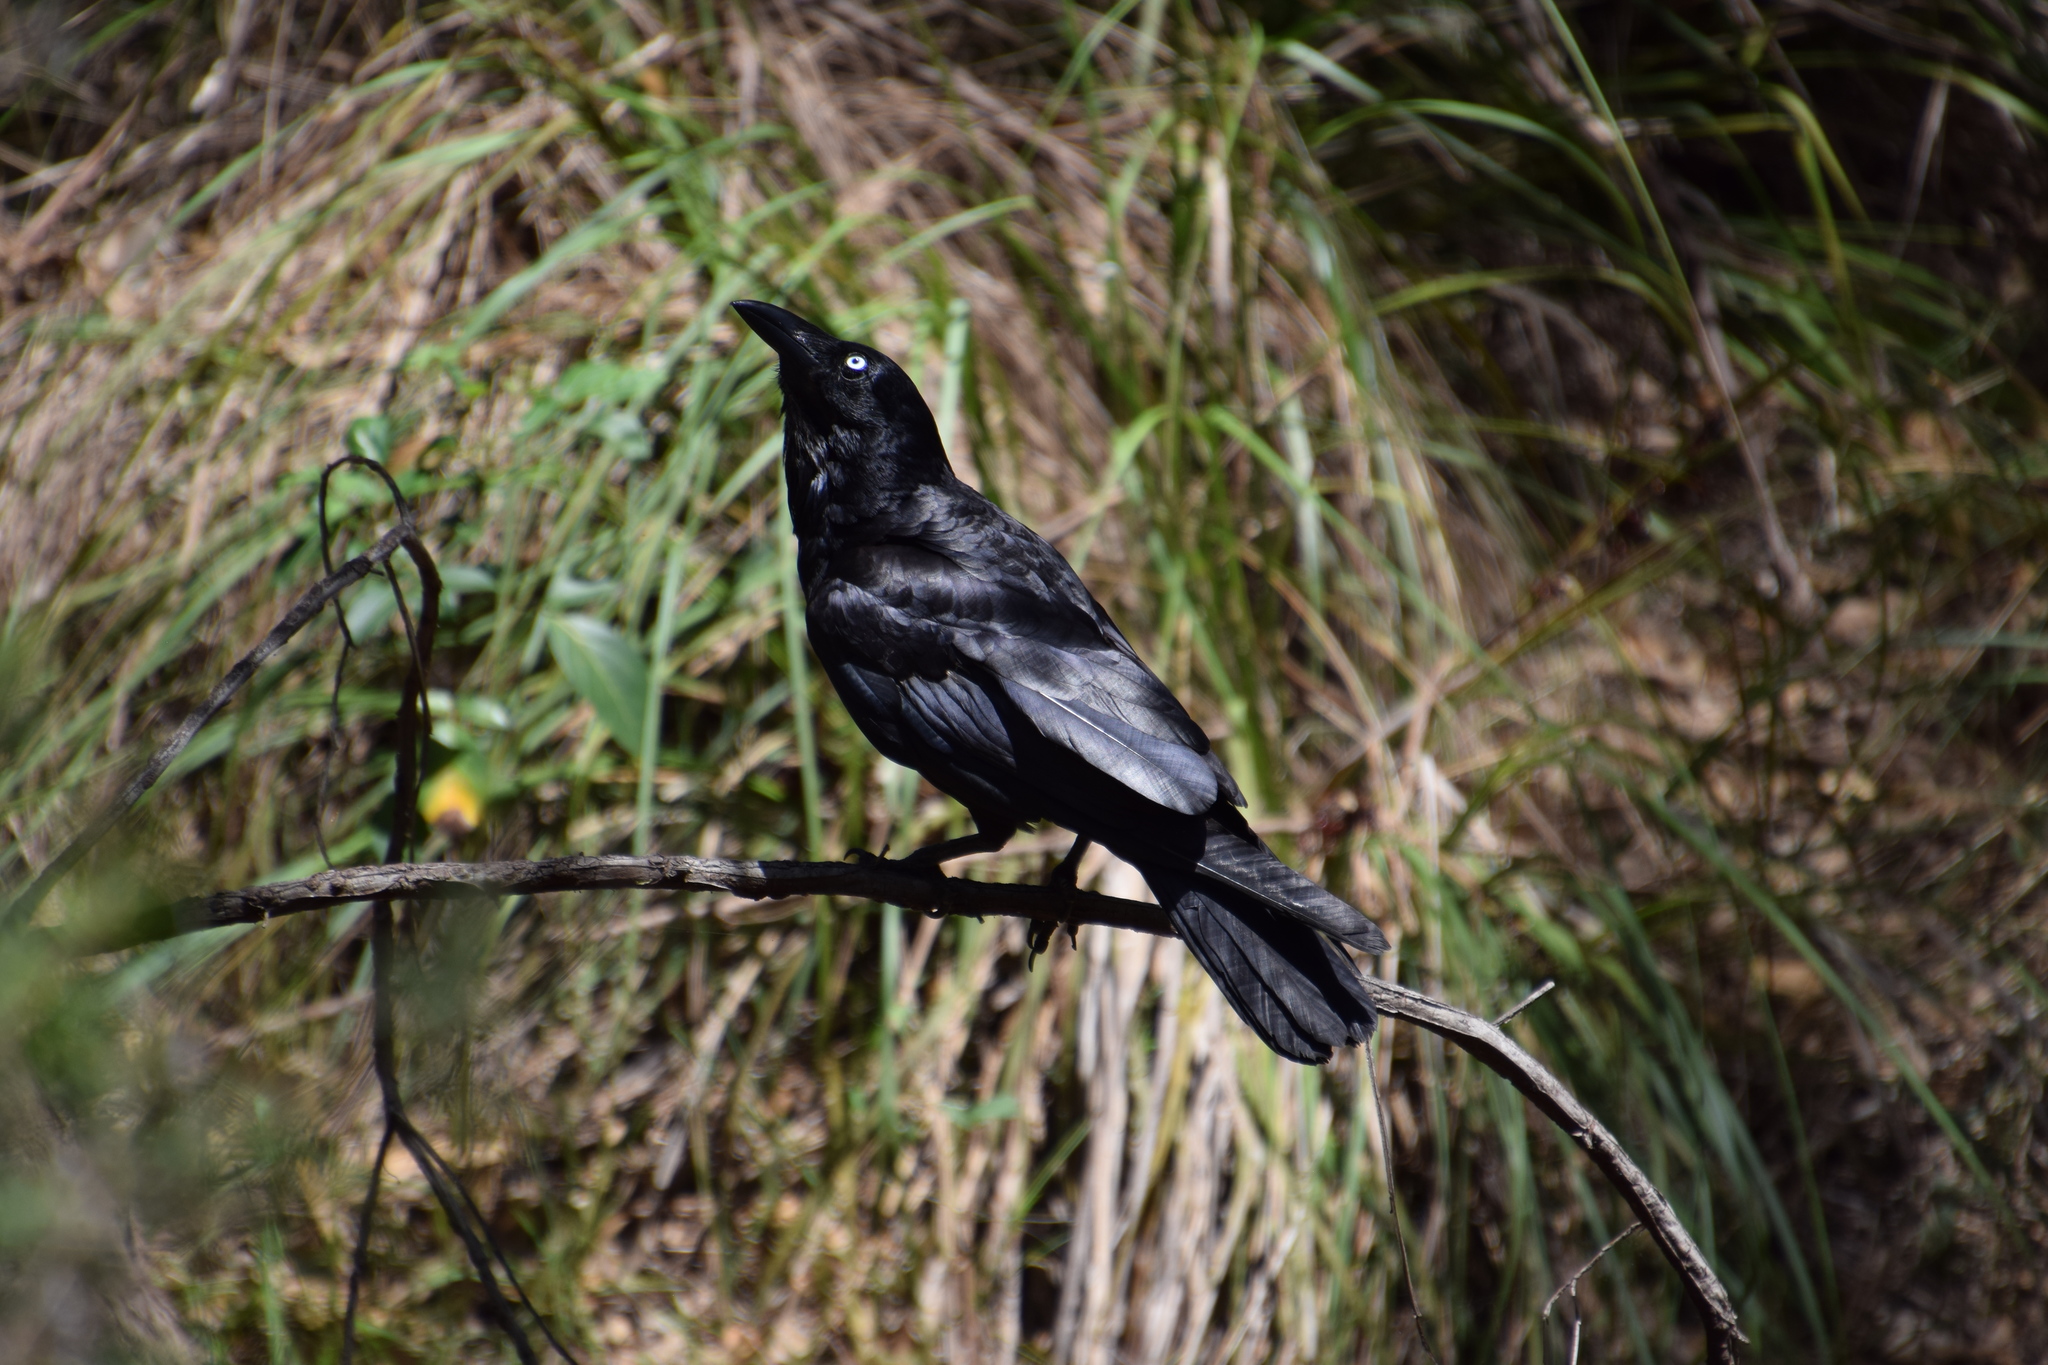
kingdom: Animalia
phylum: Chordata
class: Aves
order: Passeriformes
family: Corvidae
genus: Corvus
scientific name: Corvus coronoides
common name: Australian raven
